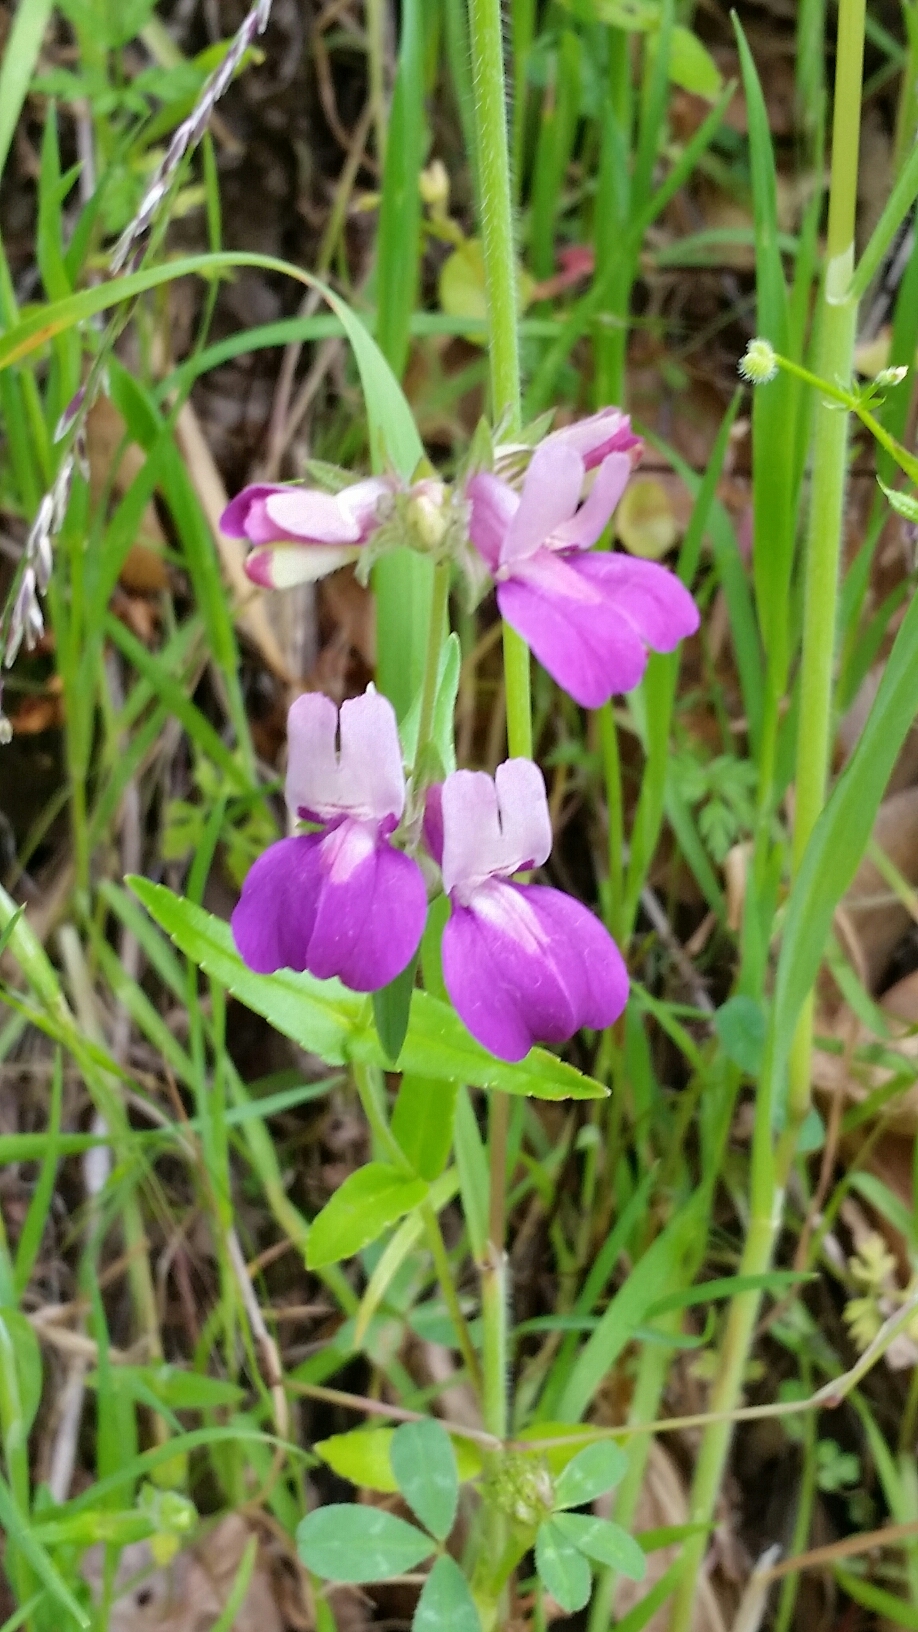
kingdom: Plantae
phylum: Tracheophyta
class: Magnoliopsida
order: Lamiales
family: Plantaginaceae
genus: Collinsia
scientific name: Collinsia heterophylla
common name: Chinese-houses
